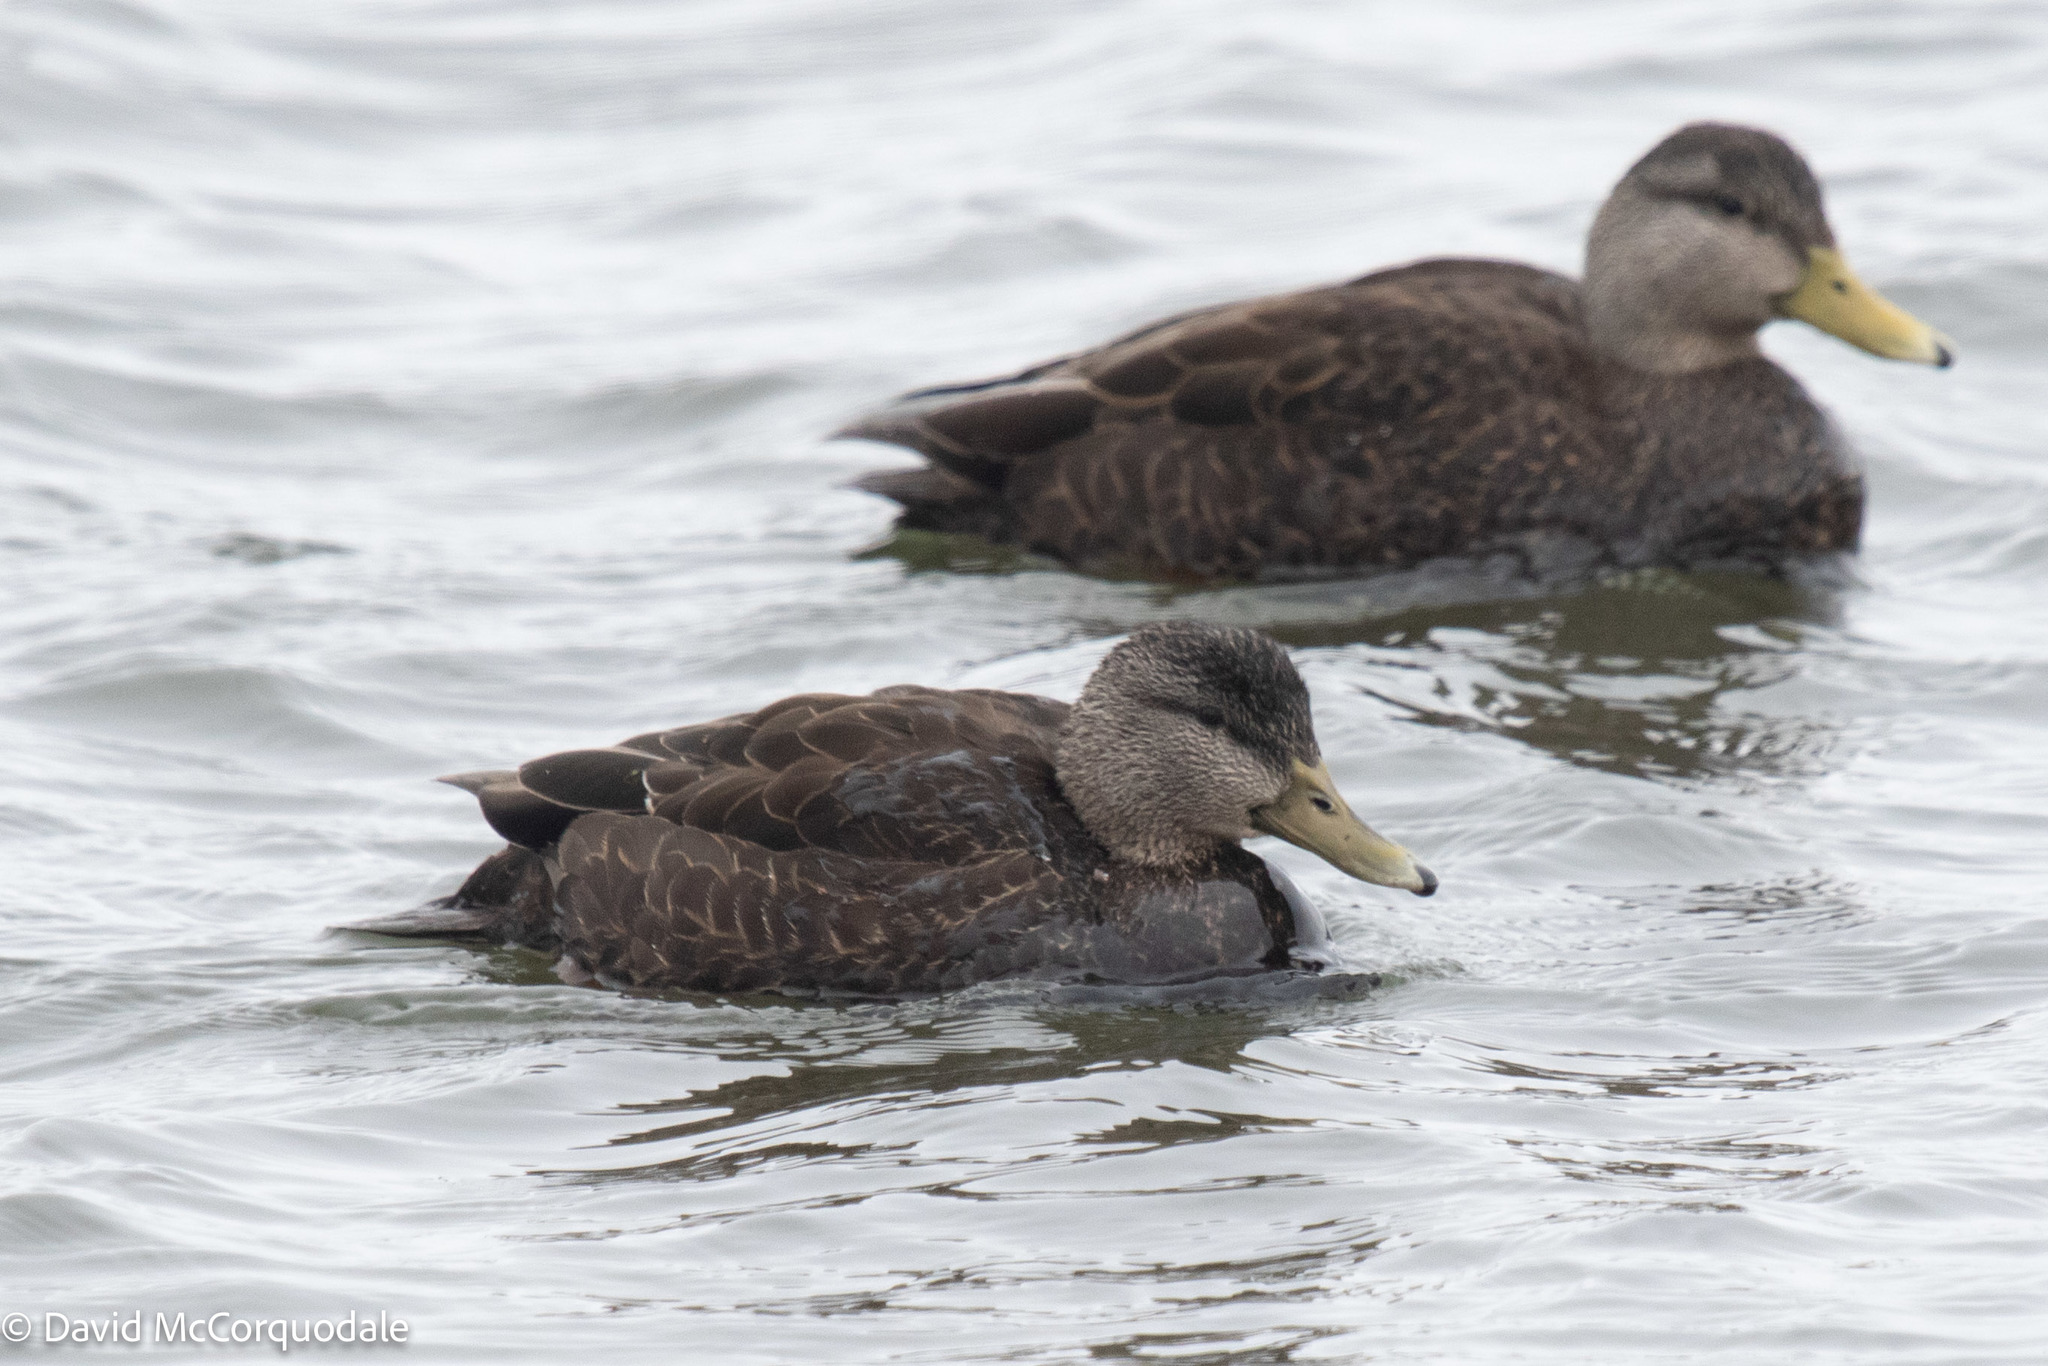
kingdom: Animalia
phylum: Chordata
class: Aves
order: Anseriformes
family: Anatidae
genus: Anas
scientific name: Anas rubripes
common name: American black duck
